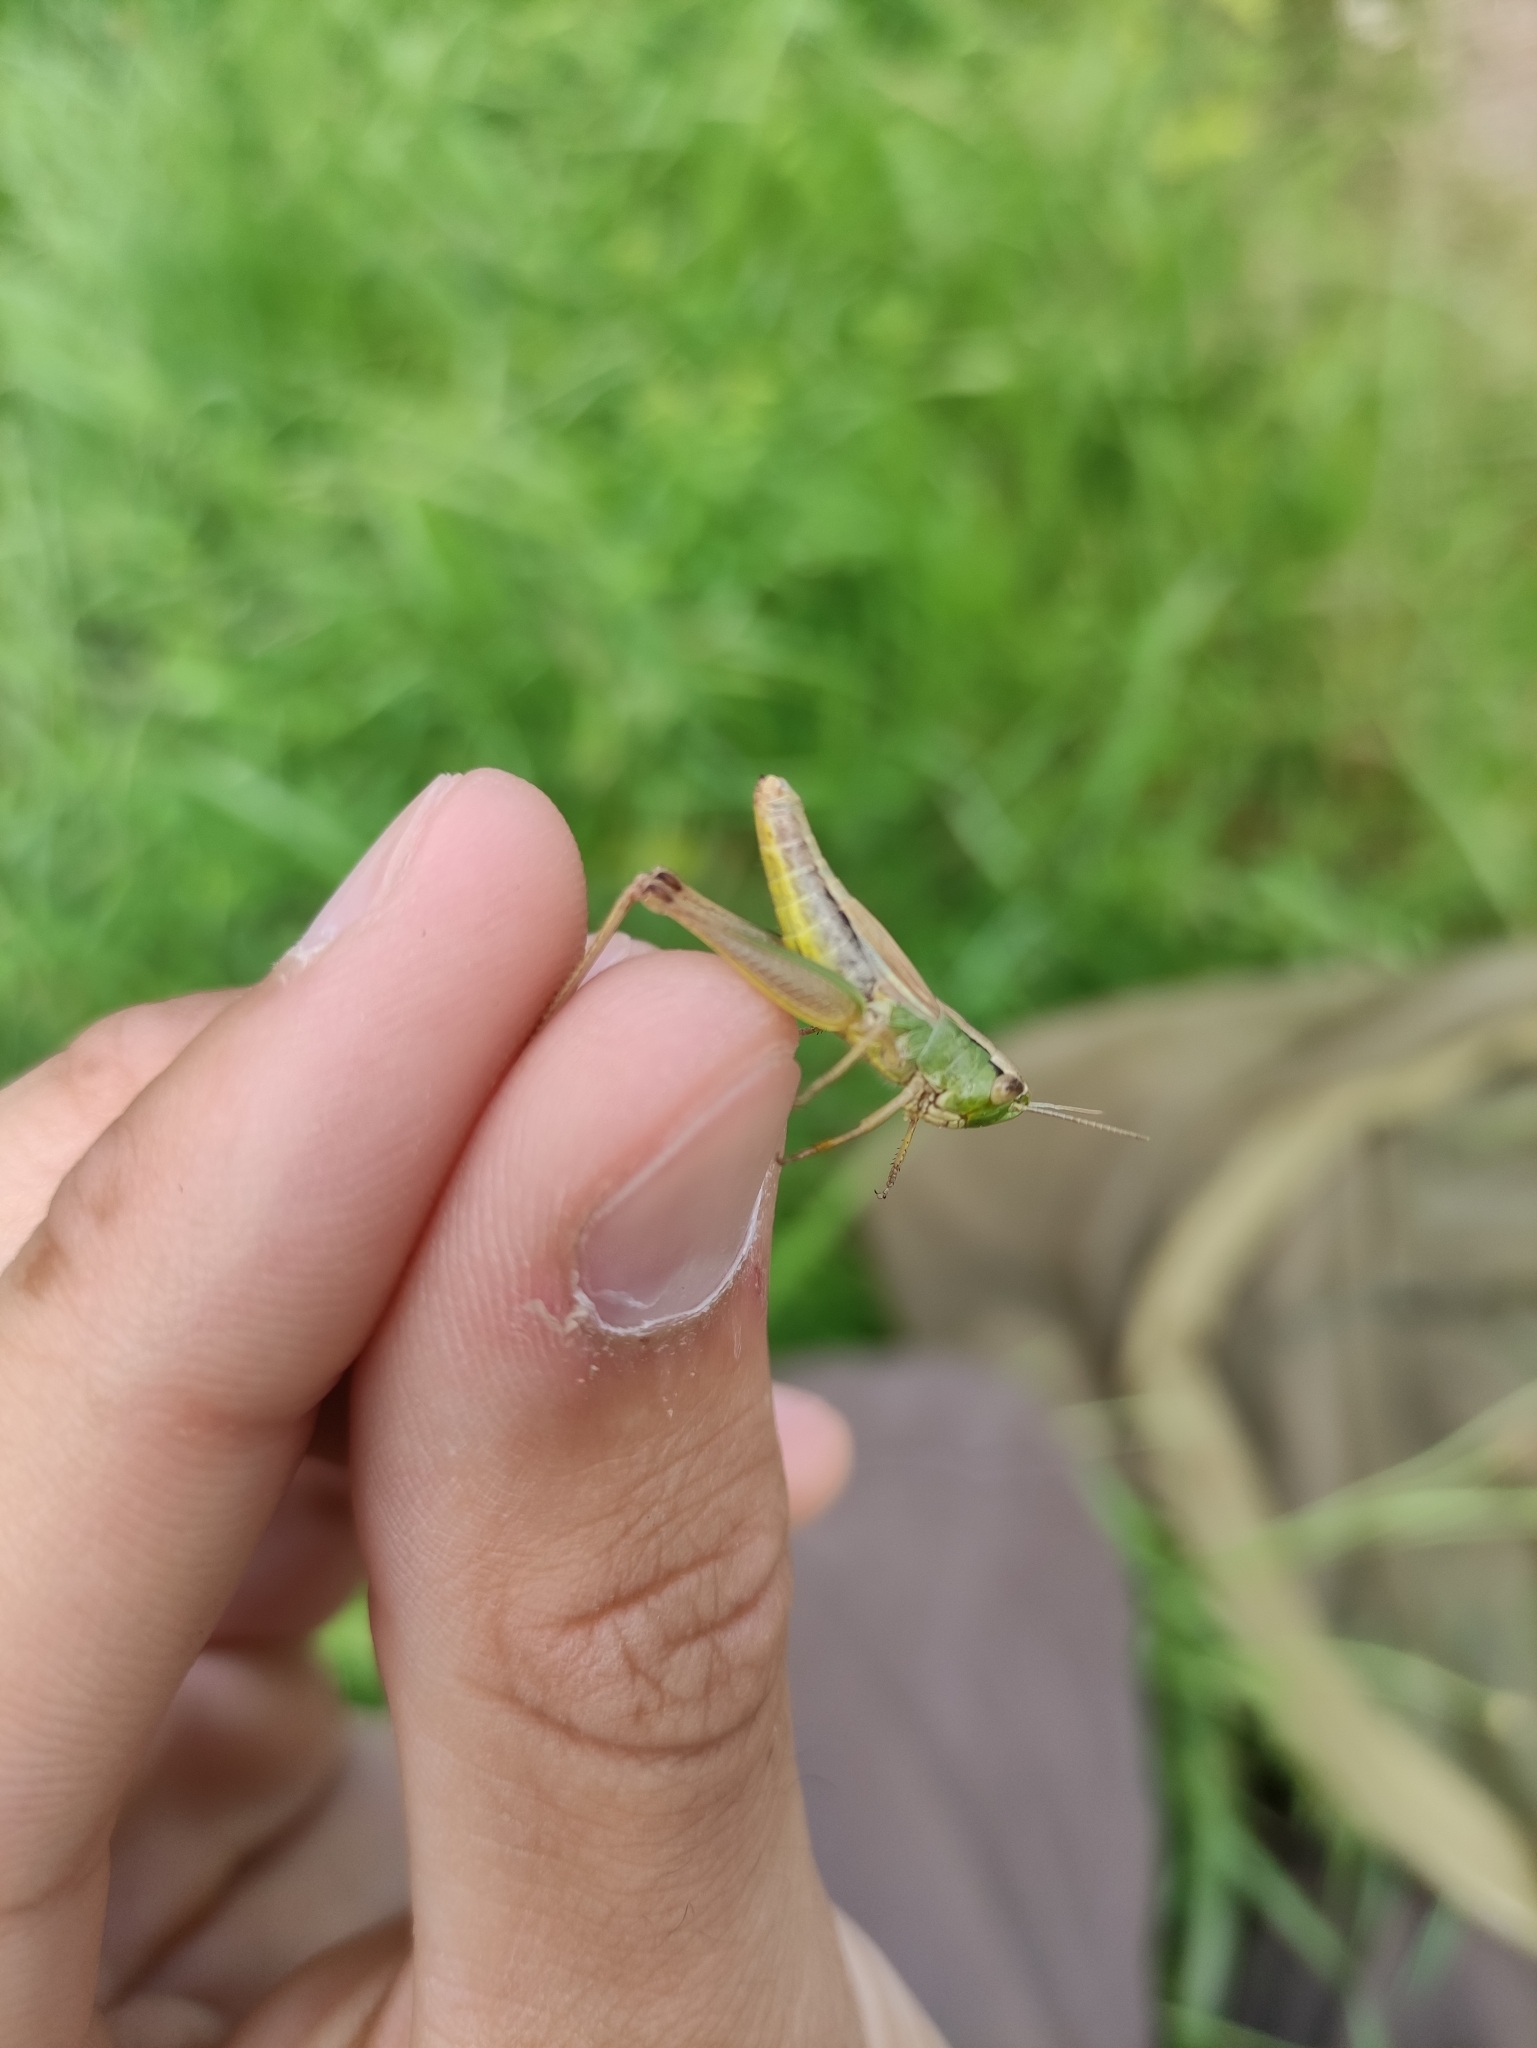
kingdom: Animalia
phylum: Arthropoda
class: Insecta
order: Orthoptera
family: Acrididae
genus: Pseudochorthippus
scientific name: Pseudochorthippus parallelus
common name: Meadow grasshopper
